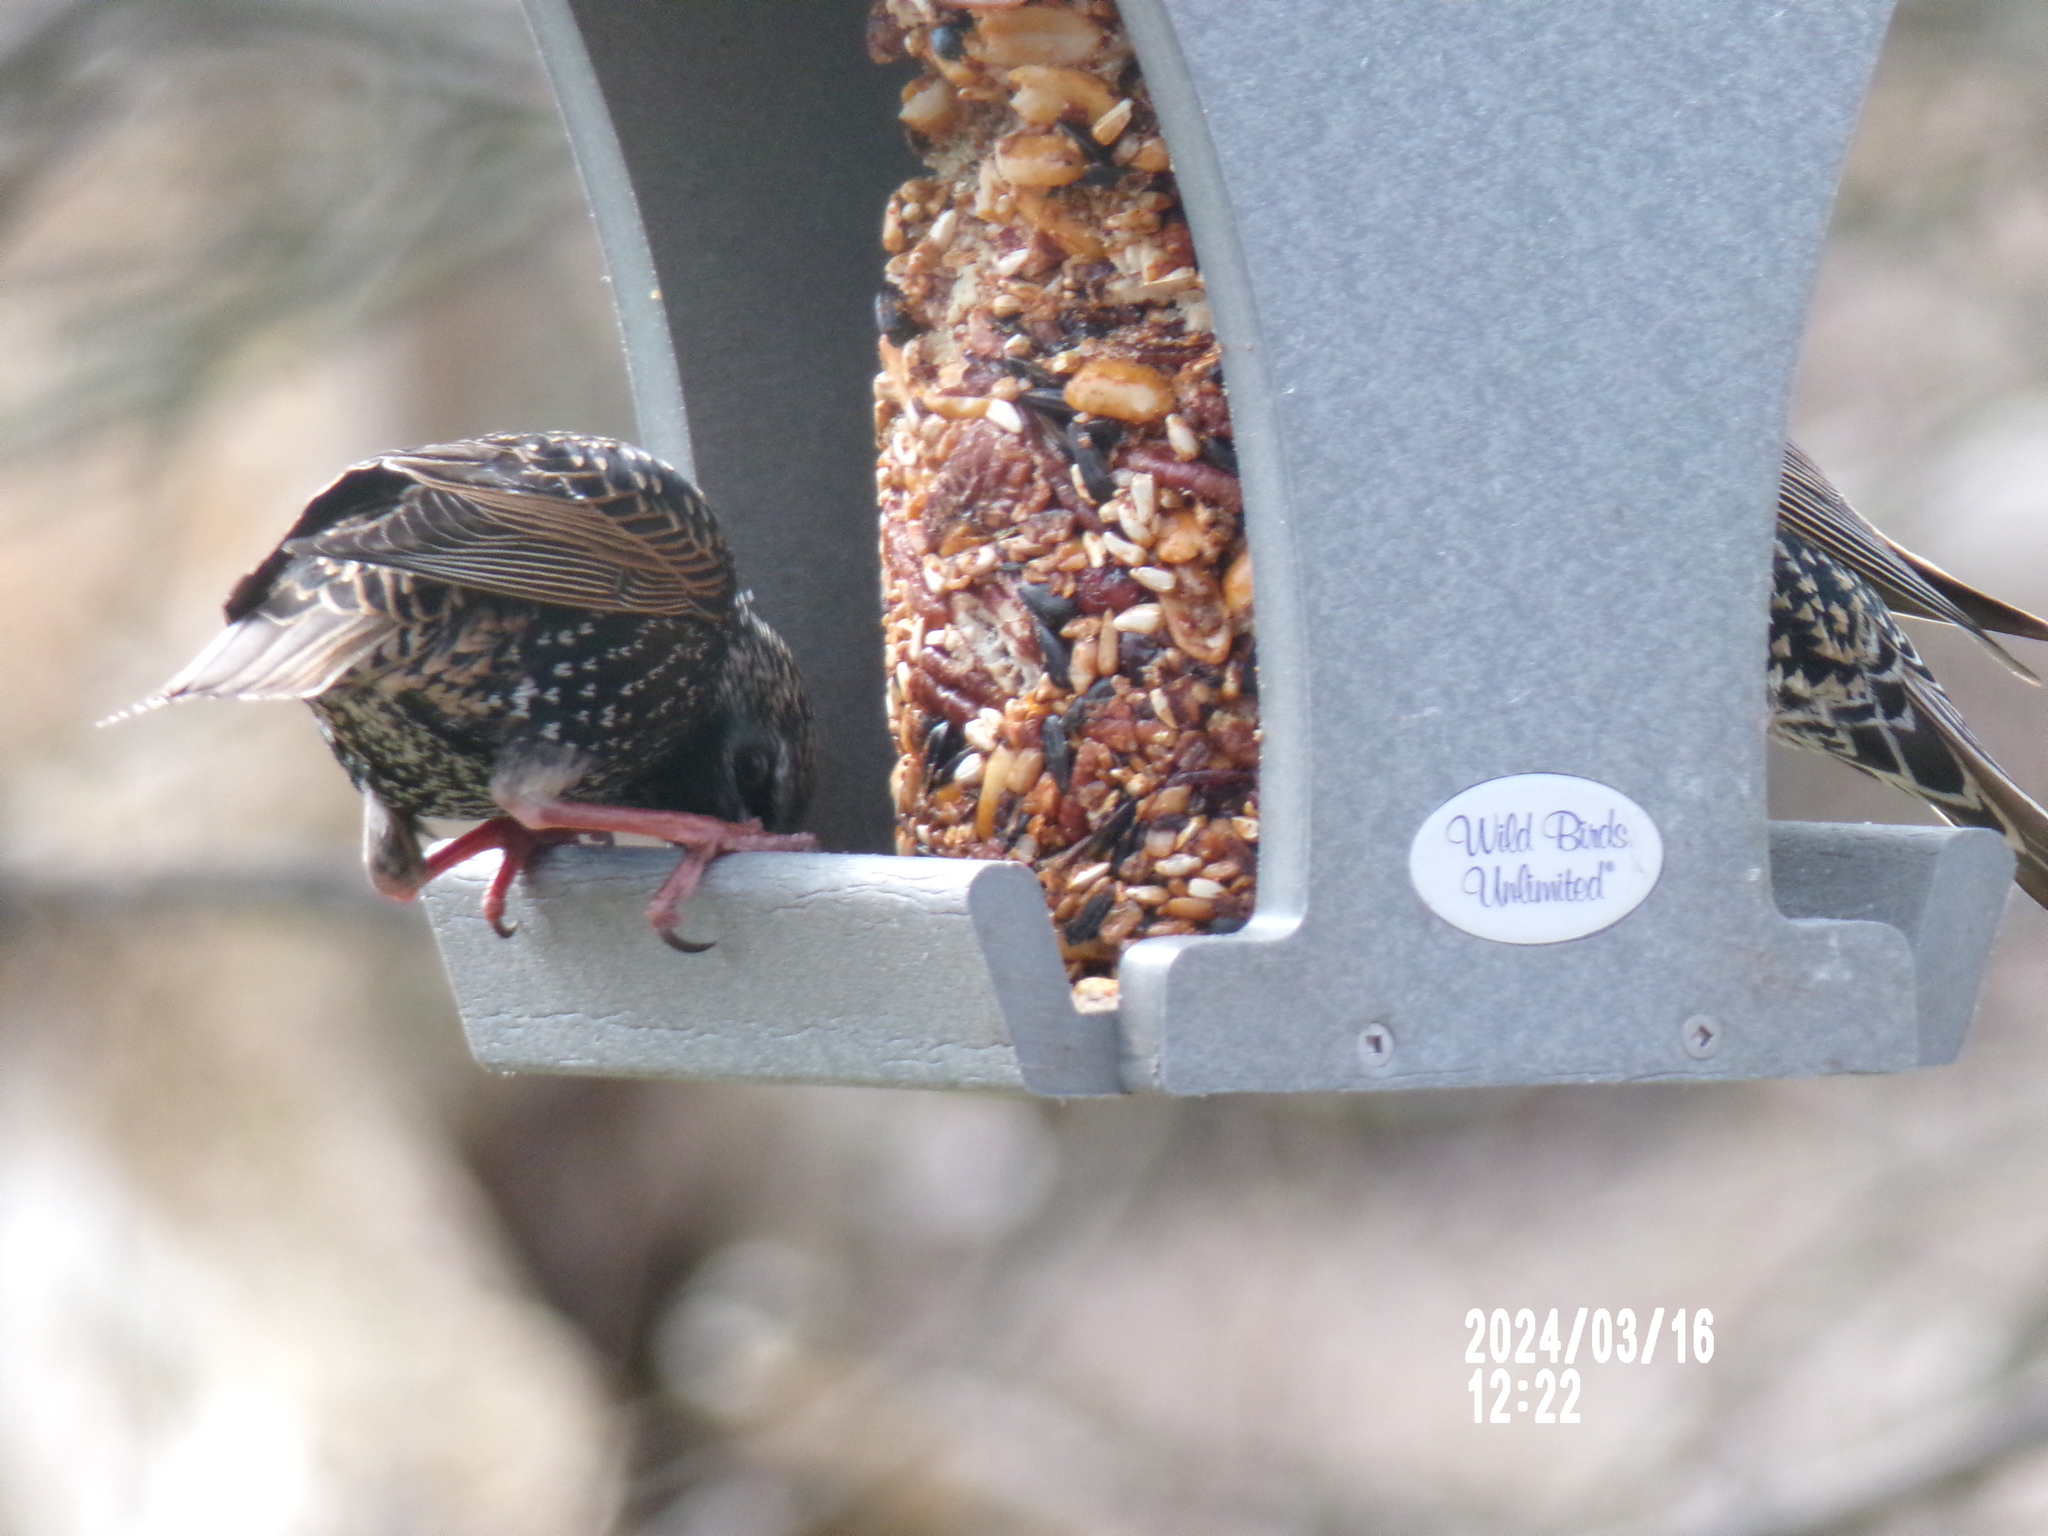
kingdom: Animalia
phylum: Chordata
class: Aves
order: Passeriformes
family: Sturnidae
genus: Sturnus
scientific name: Sturnus vulgaris
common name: Common starling
